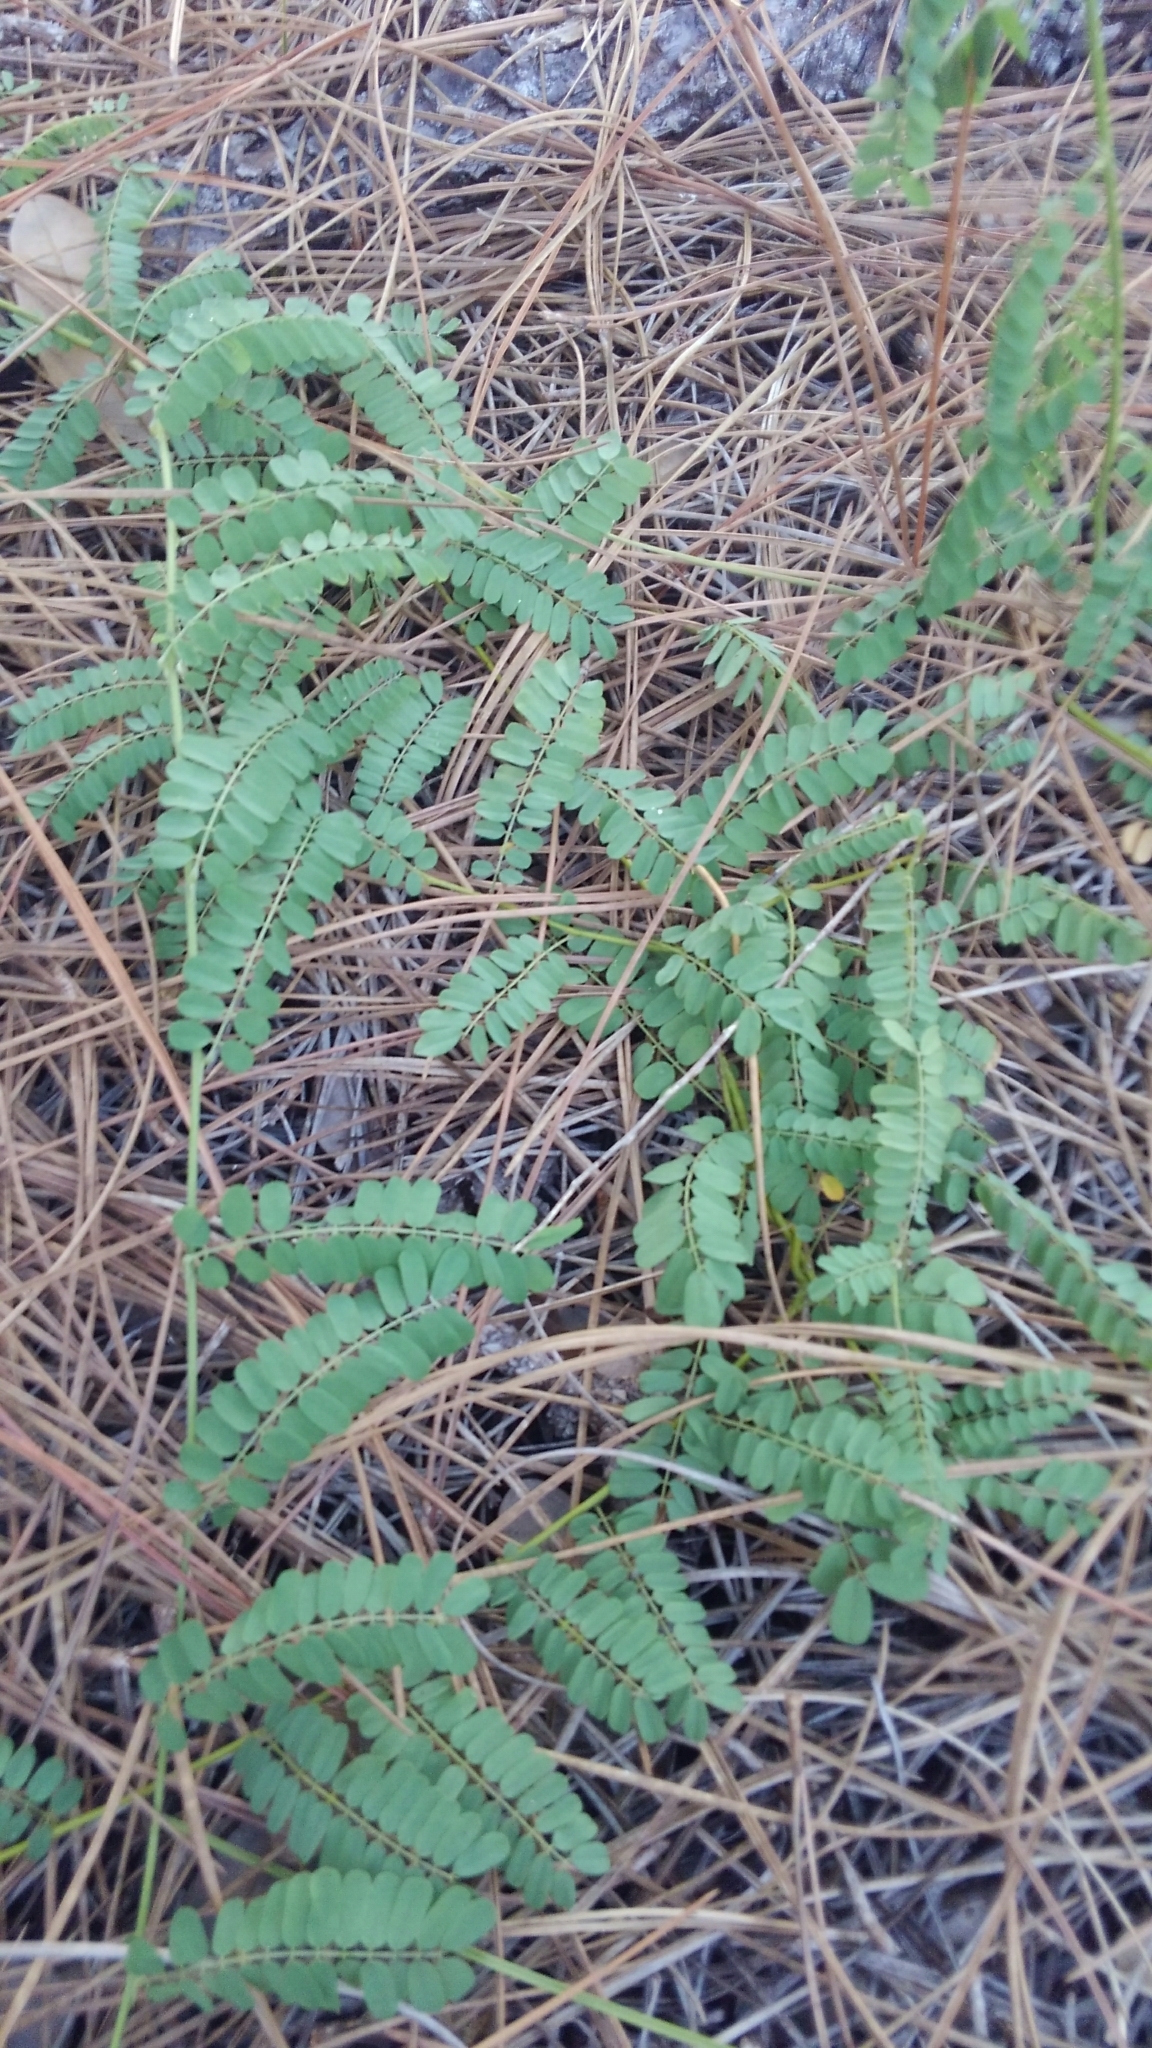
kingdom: Plantae
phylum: Tracheophyta
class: Magnoliopsida
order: Fabales
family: Fabaceae
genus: Abrus
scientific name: Abrus precatorius
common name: Rosarypea
